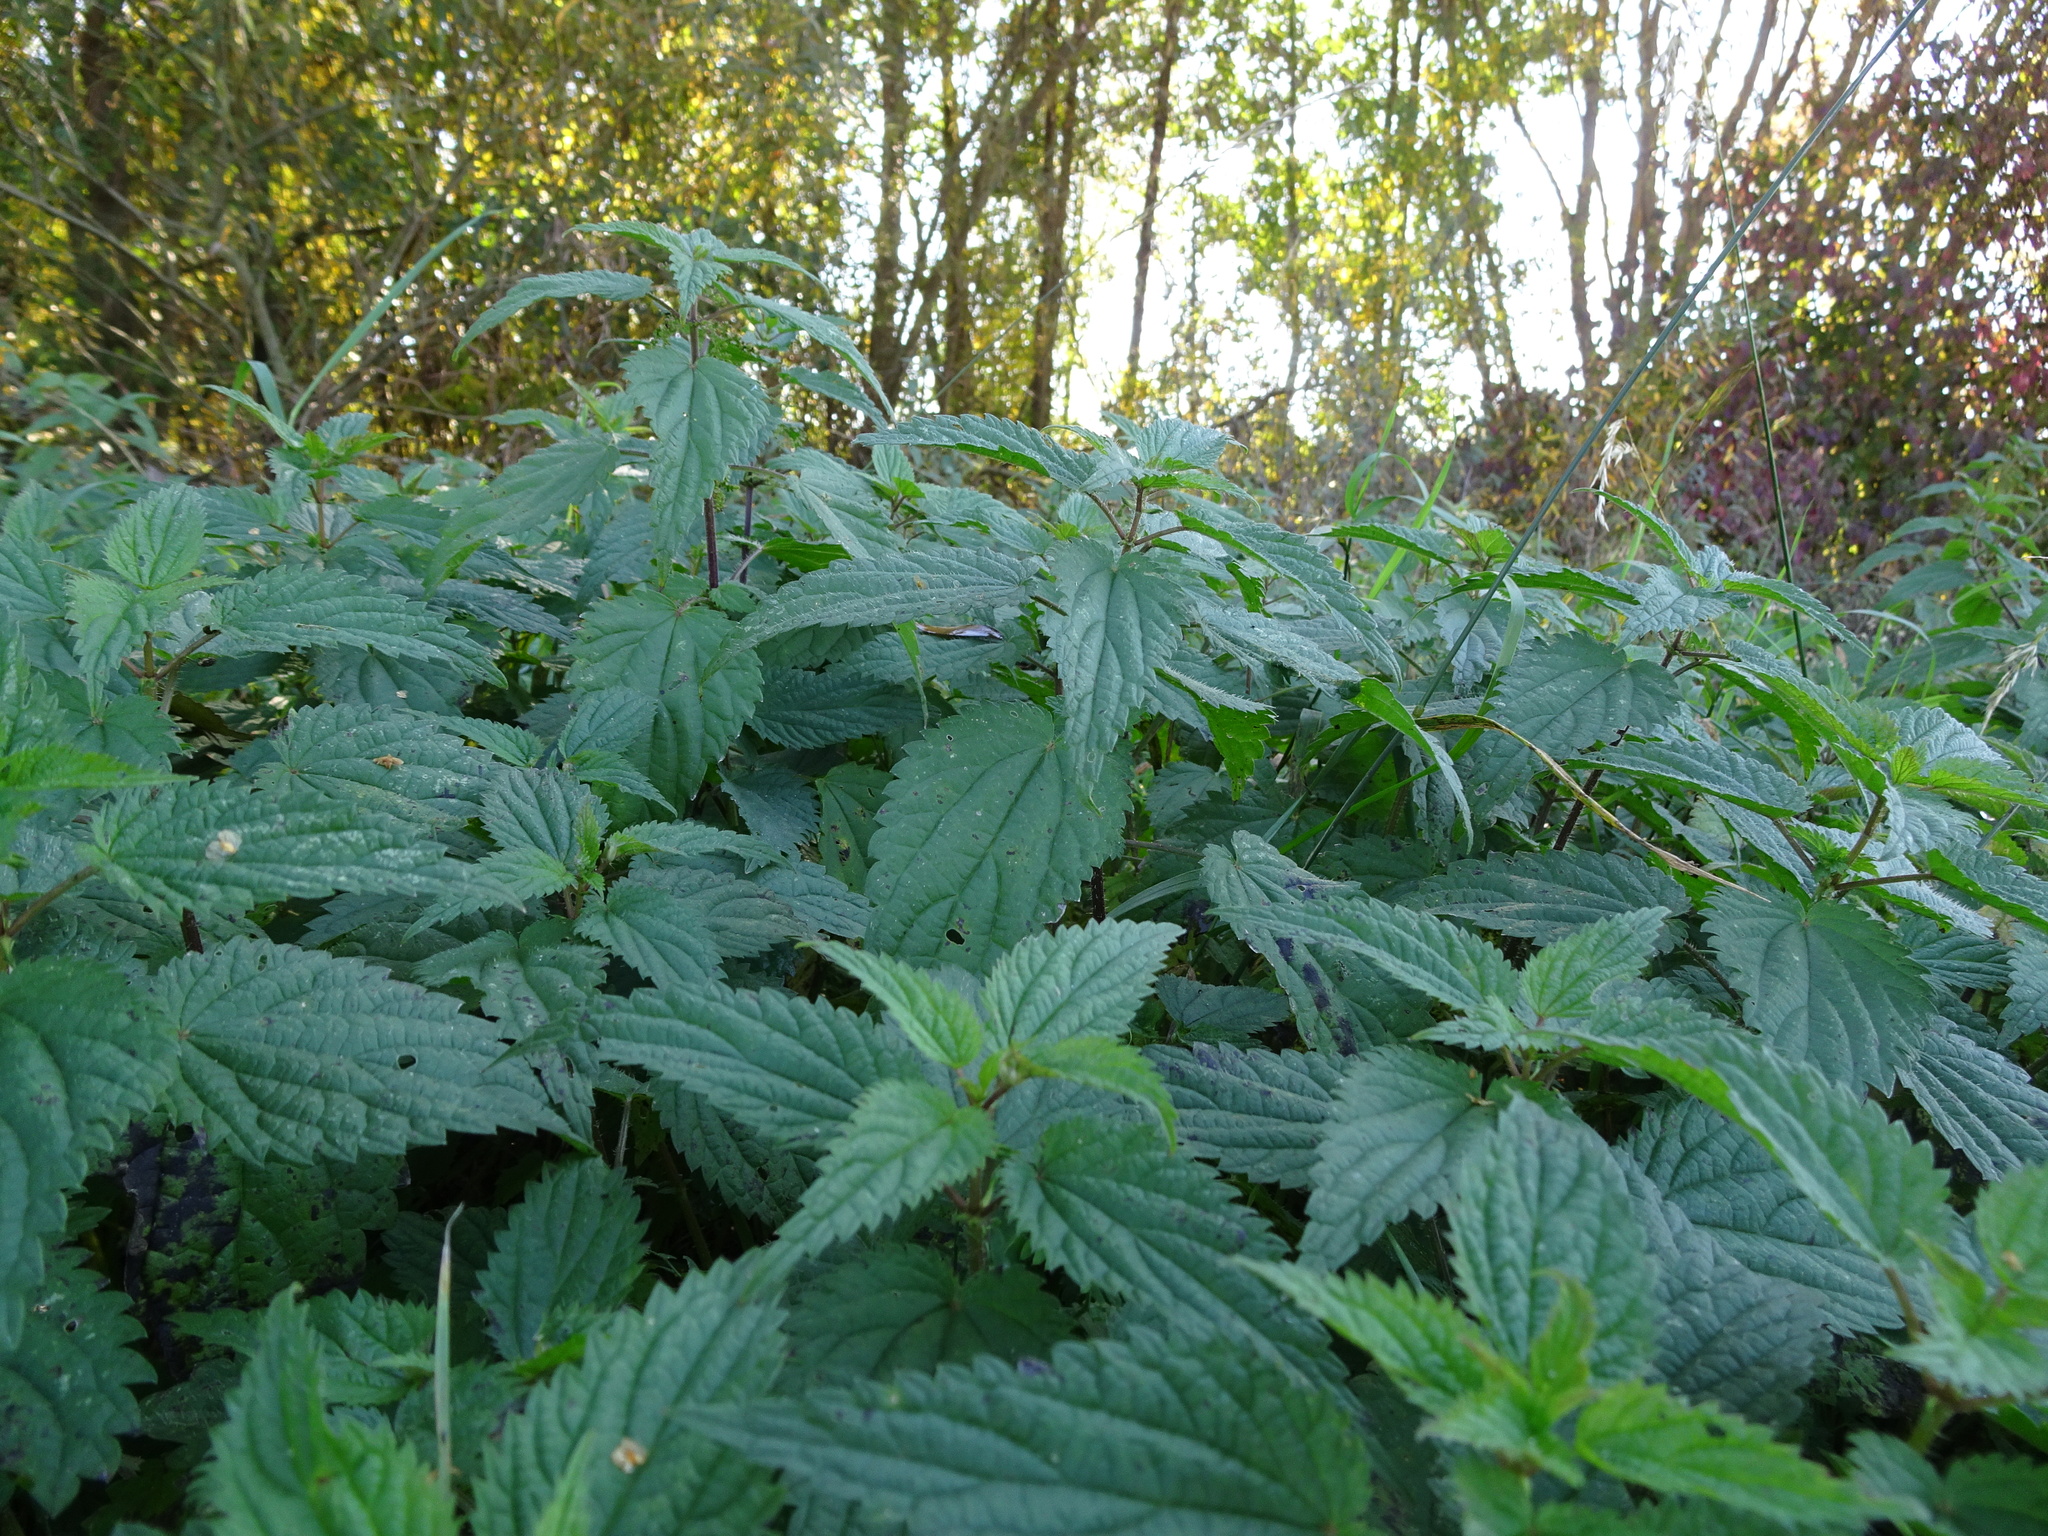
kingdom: Plantae
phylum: Tracheophyta
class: Magnoliopsida
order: Rosales
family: Urticaceae
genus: Urtica
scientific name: Urtica dioica
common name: Common nettle
